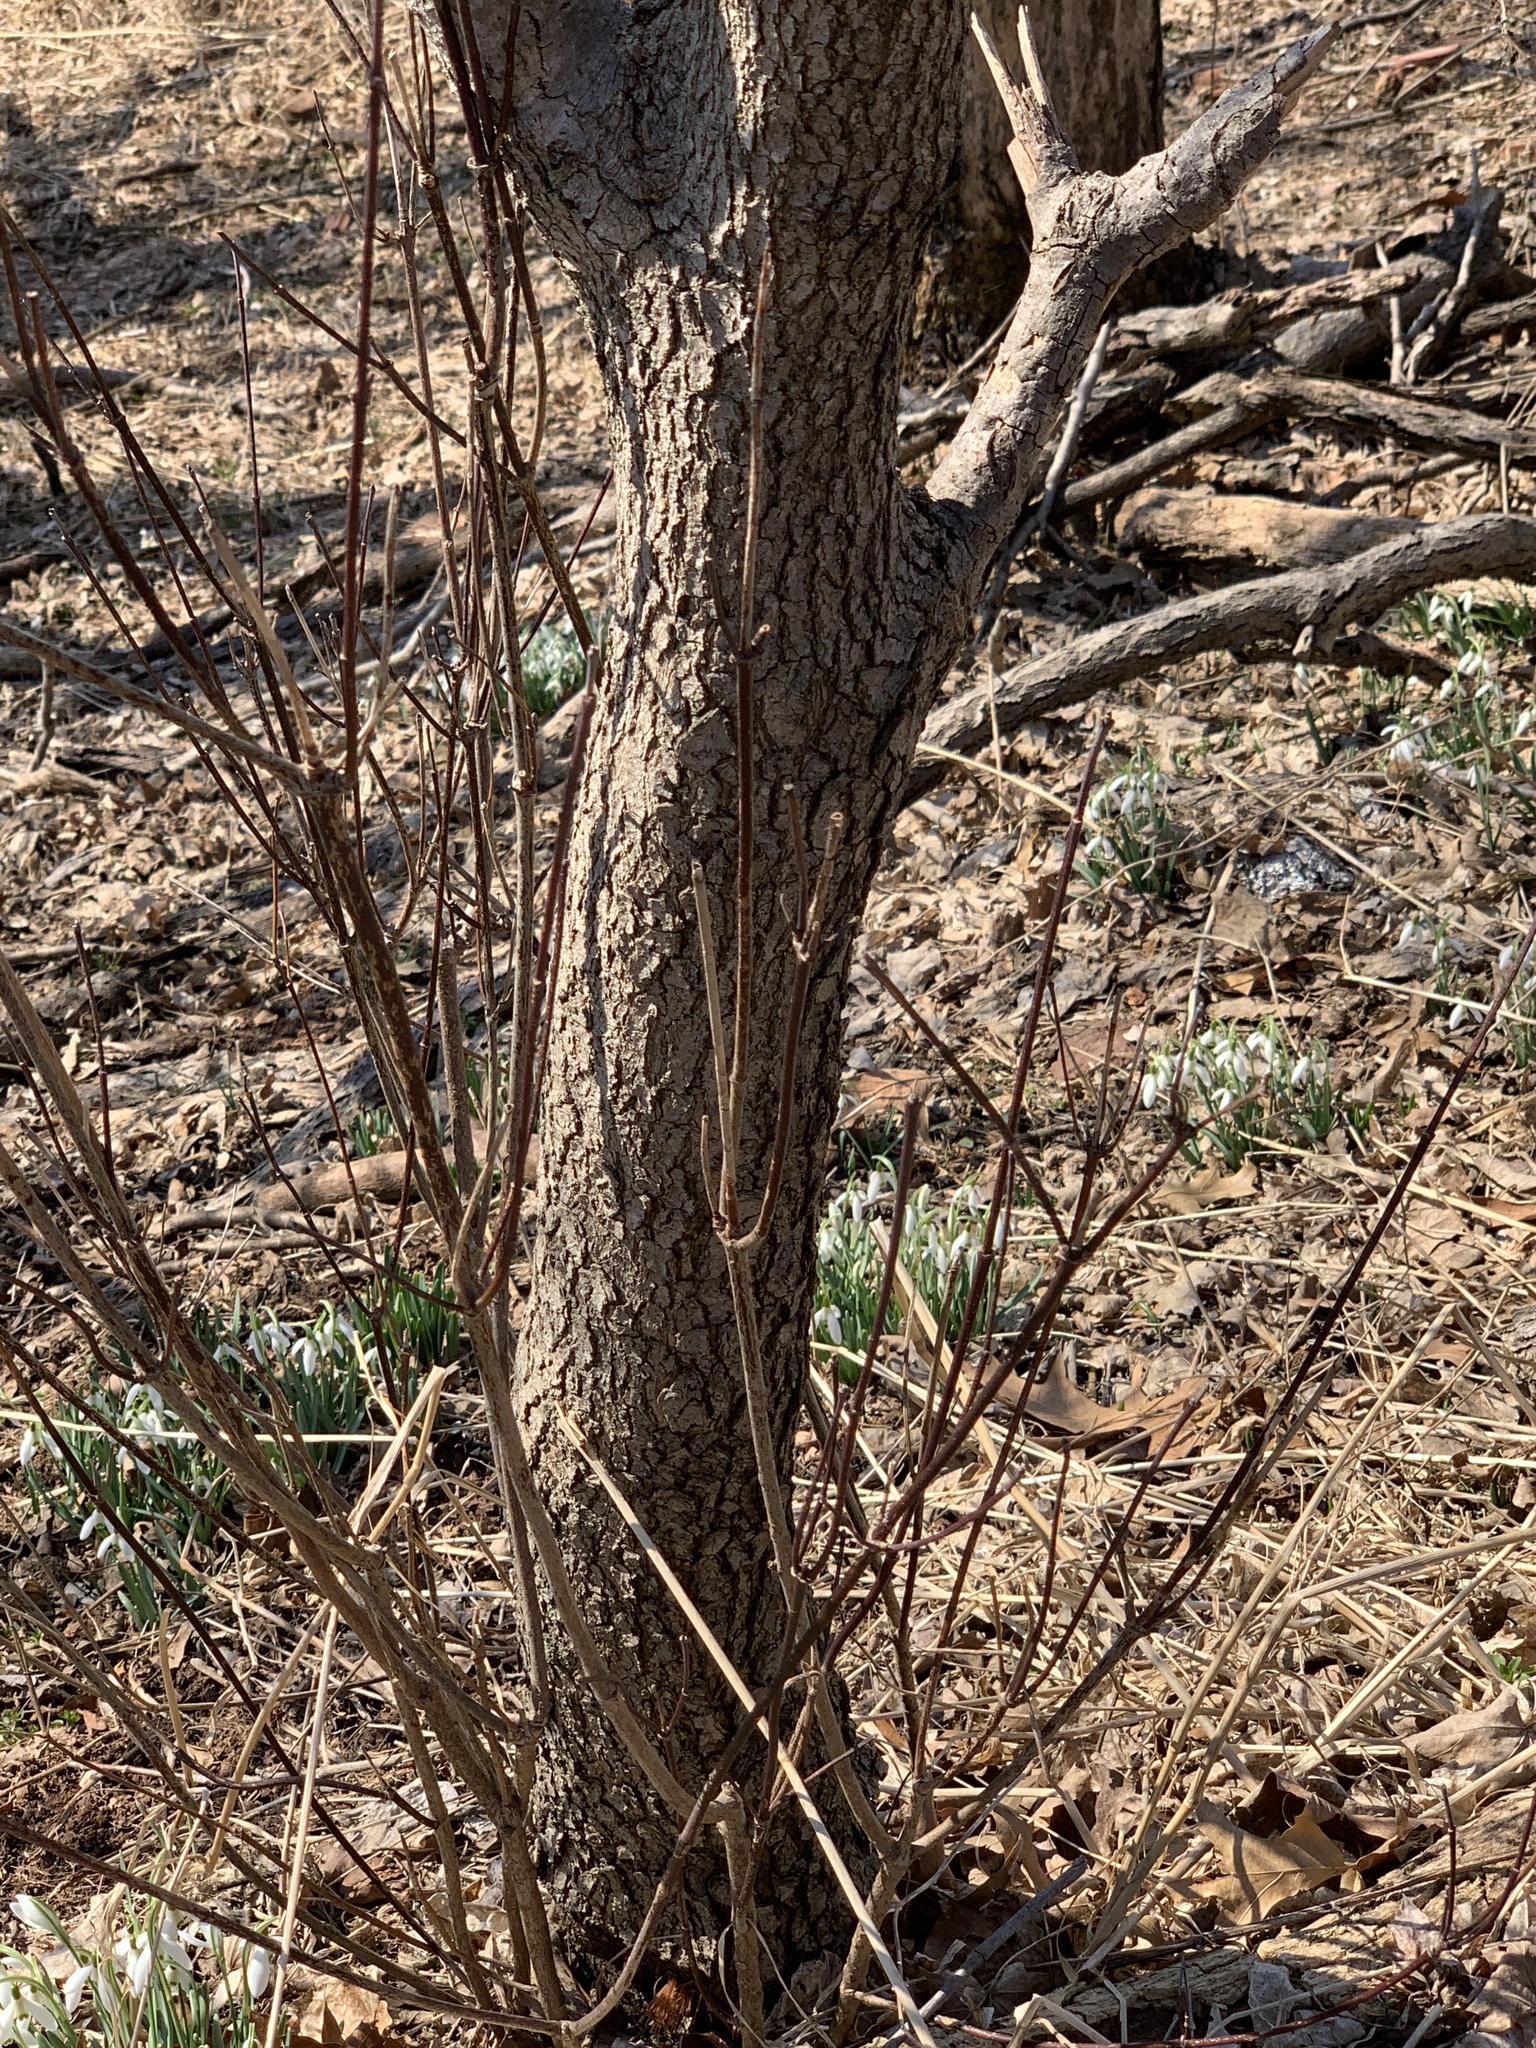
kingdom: Plantae
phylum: Tracheophyta
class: Magnoliopsida
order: Cornales
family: Cornaceae
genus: Cornus
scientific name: Cornus florida
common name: Flowering dogwood
